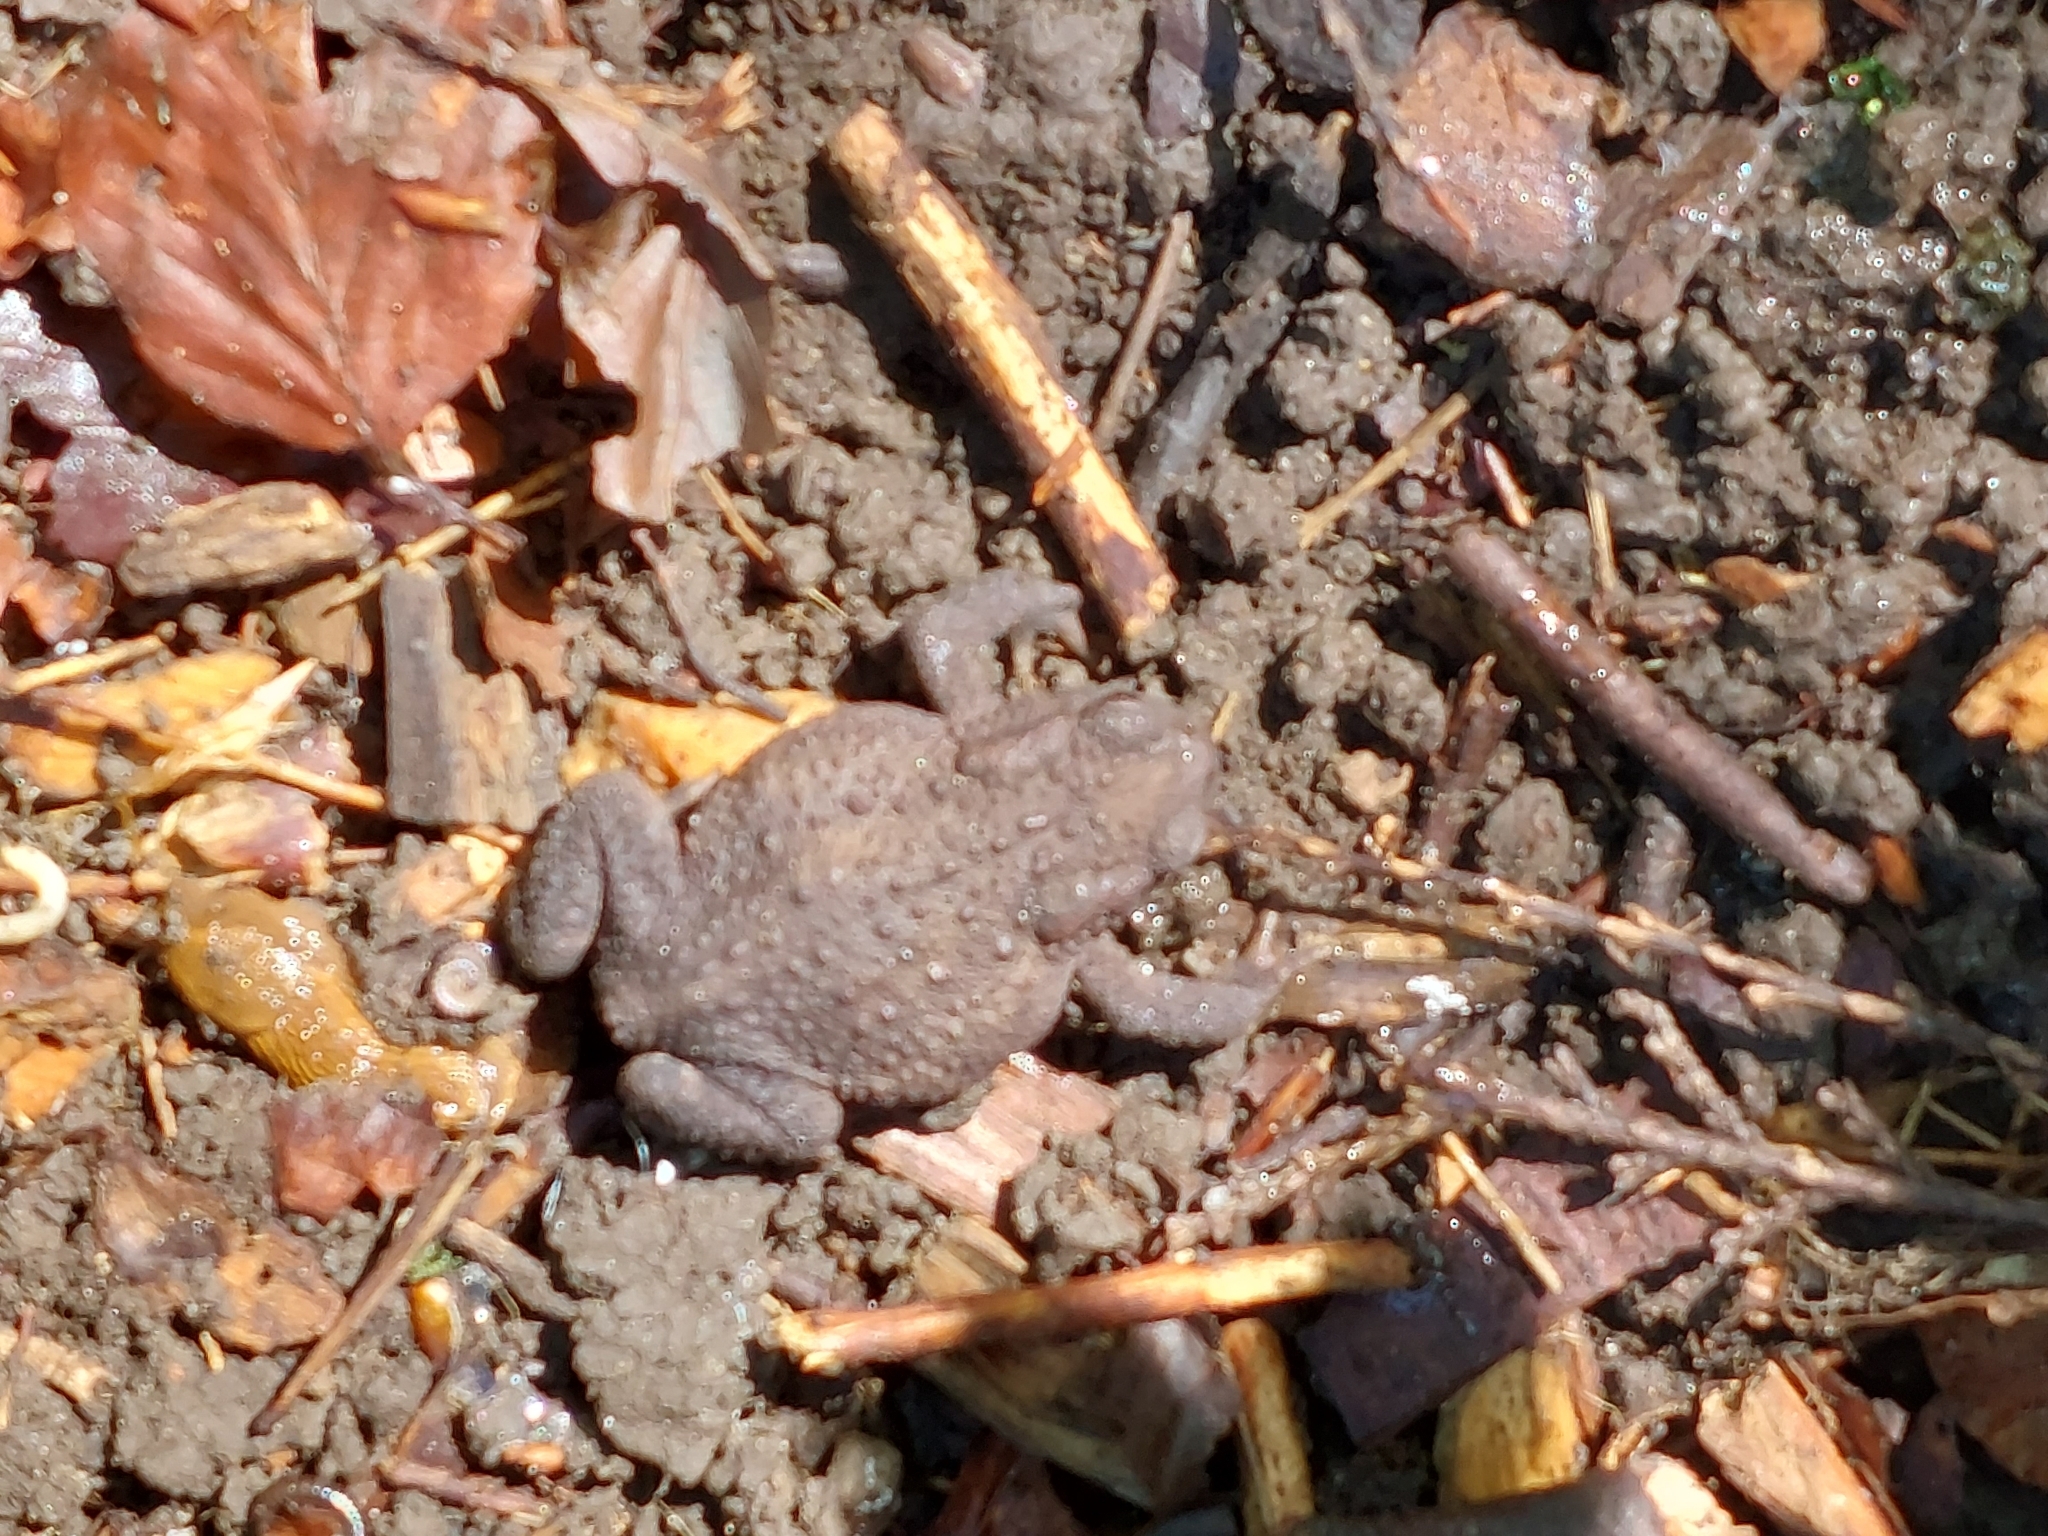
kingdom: Animalia
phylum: Chordata
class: Amphibia
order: Anura
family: Bufonidae
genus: Bufo
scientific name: Bufo bufo
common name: Common toad
